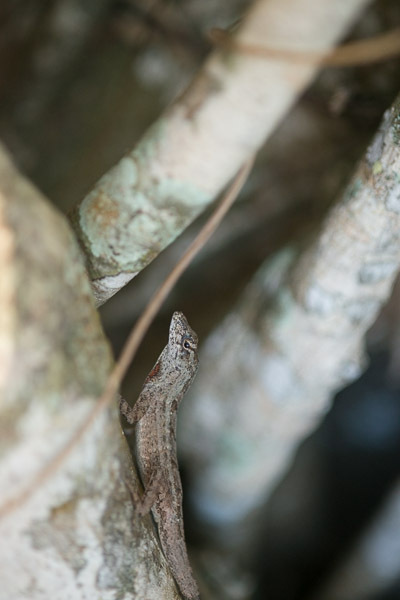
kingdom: Animalia
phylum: Chordata
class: Squamata
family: Dactyloidae
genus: Anolis
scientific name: Anolis sagrei
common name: Brown anole
